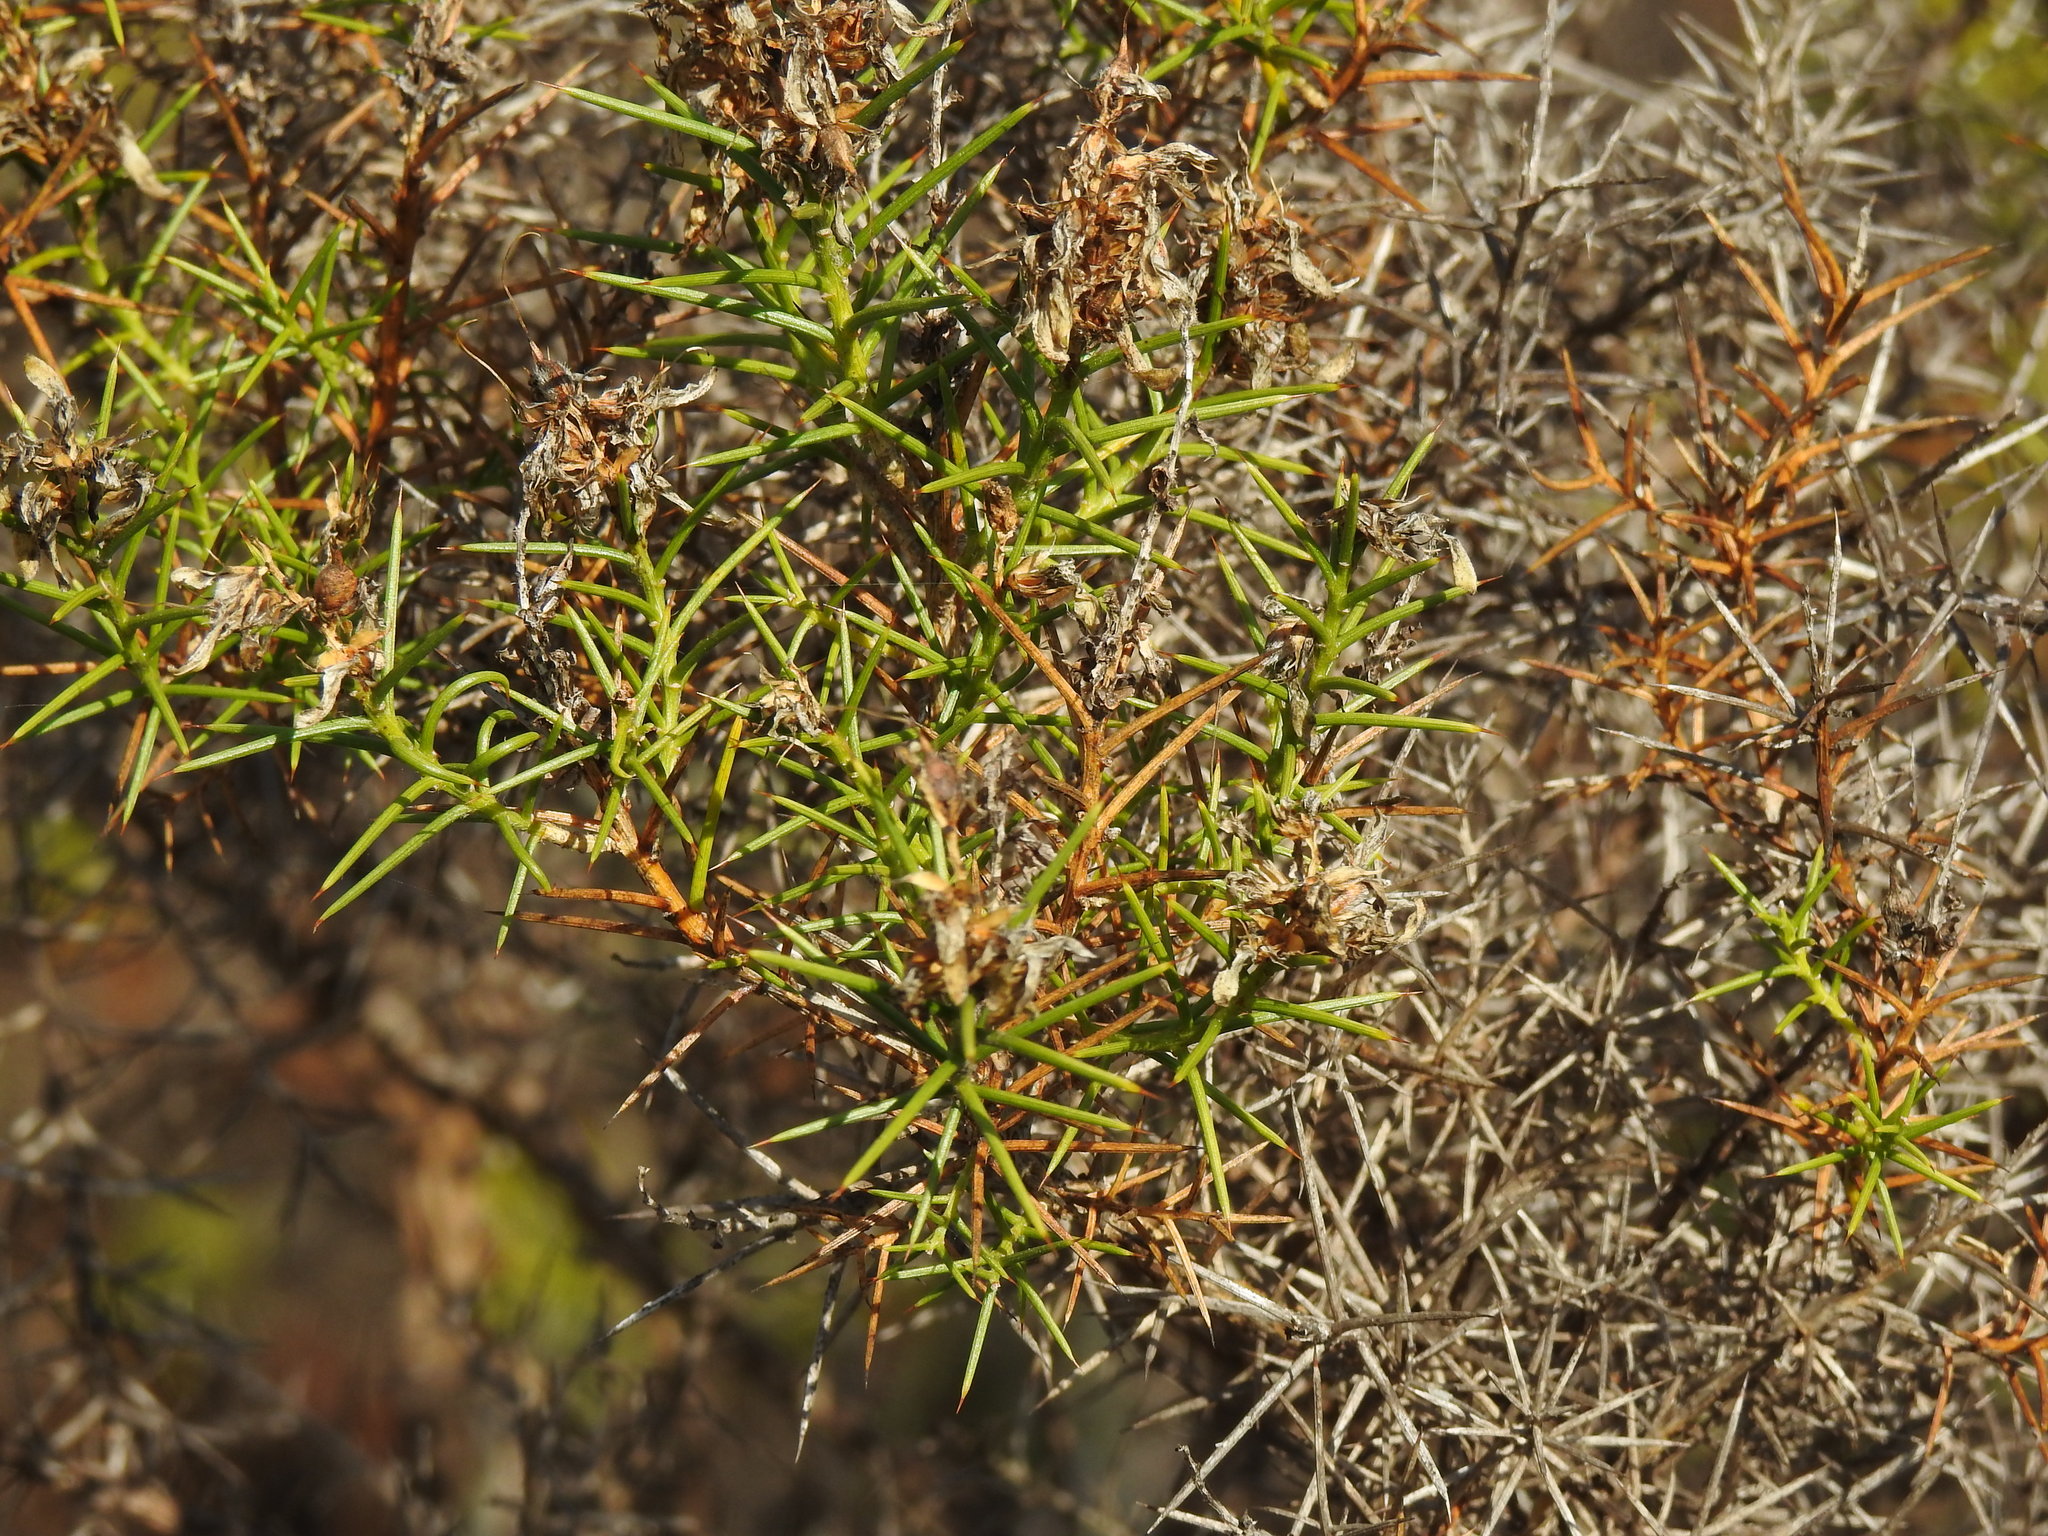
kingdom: Plantae
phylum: Tracheophyta
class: Magnoliopsida
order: Fabales
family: Fabaceae
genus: Genista
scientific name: Genista hirsuta
